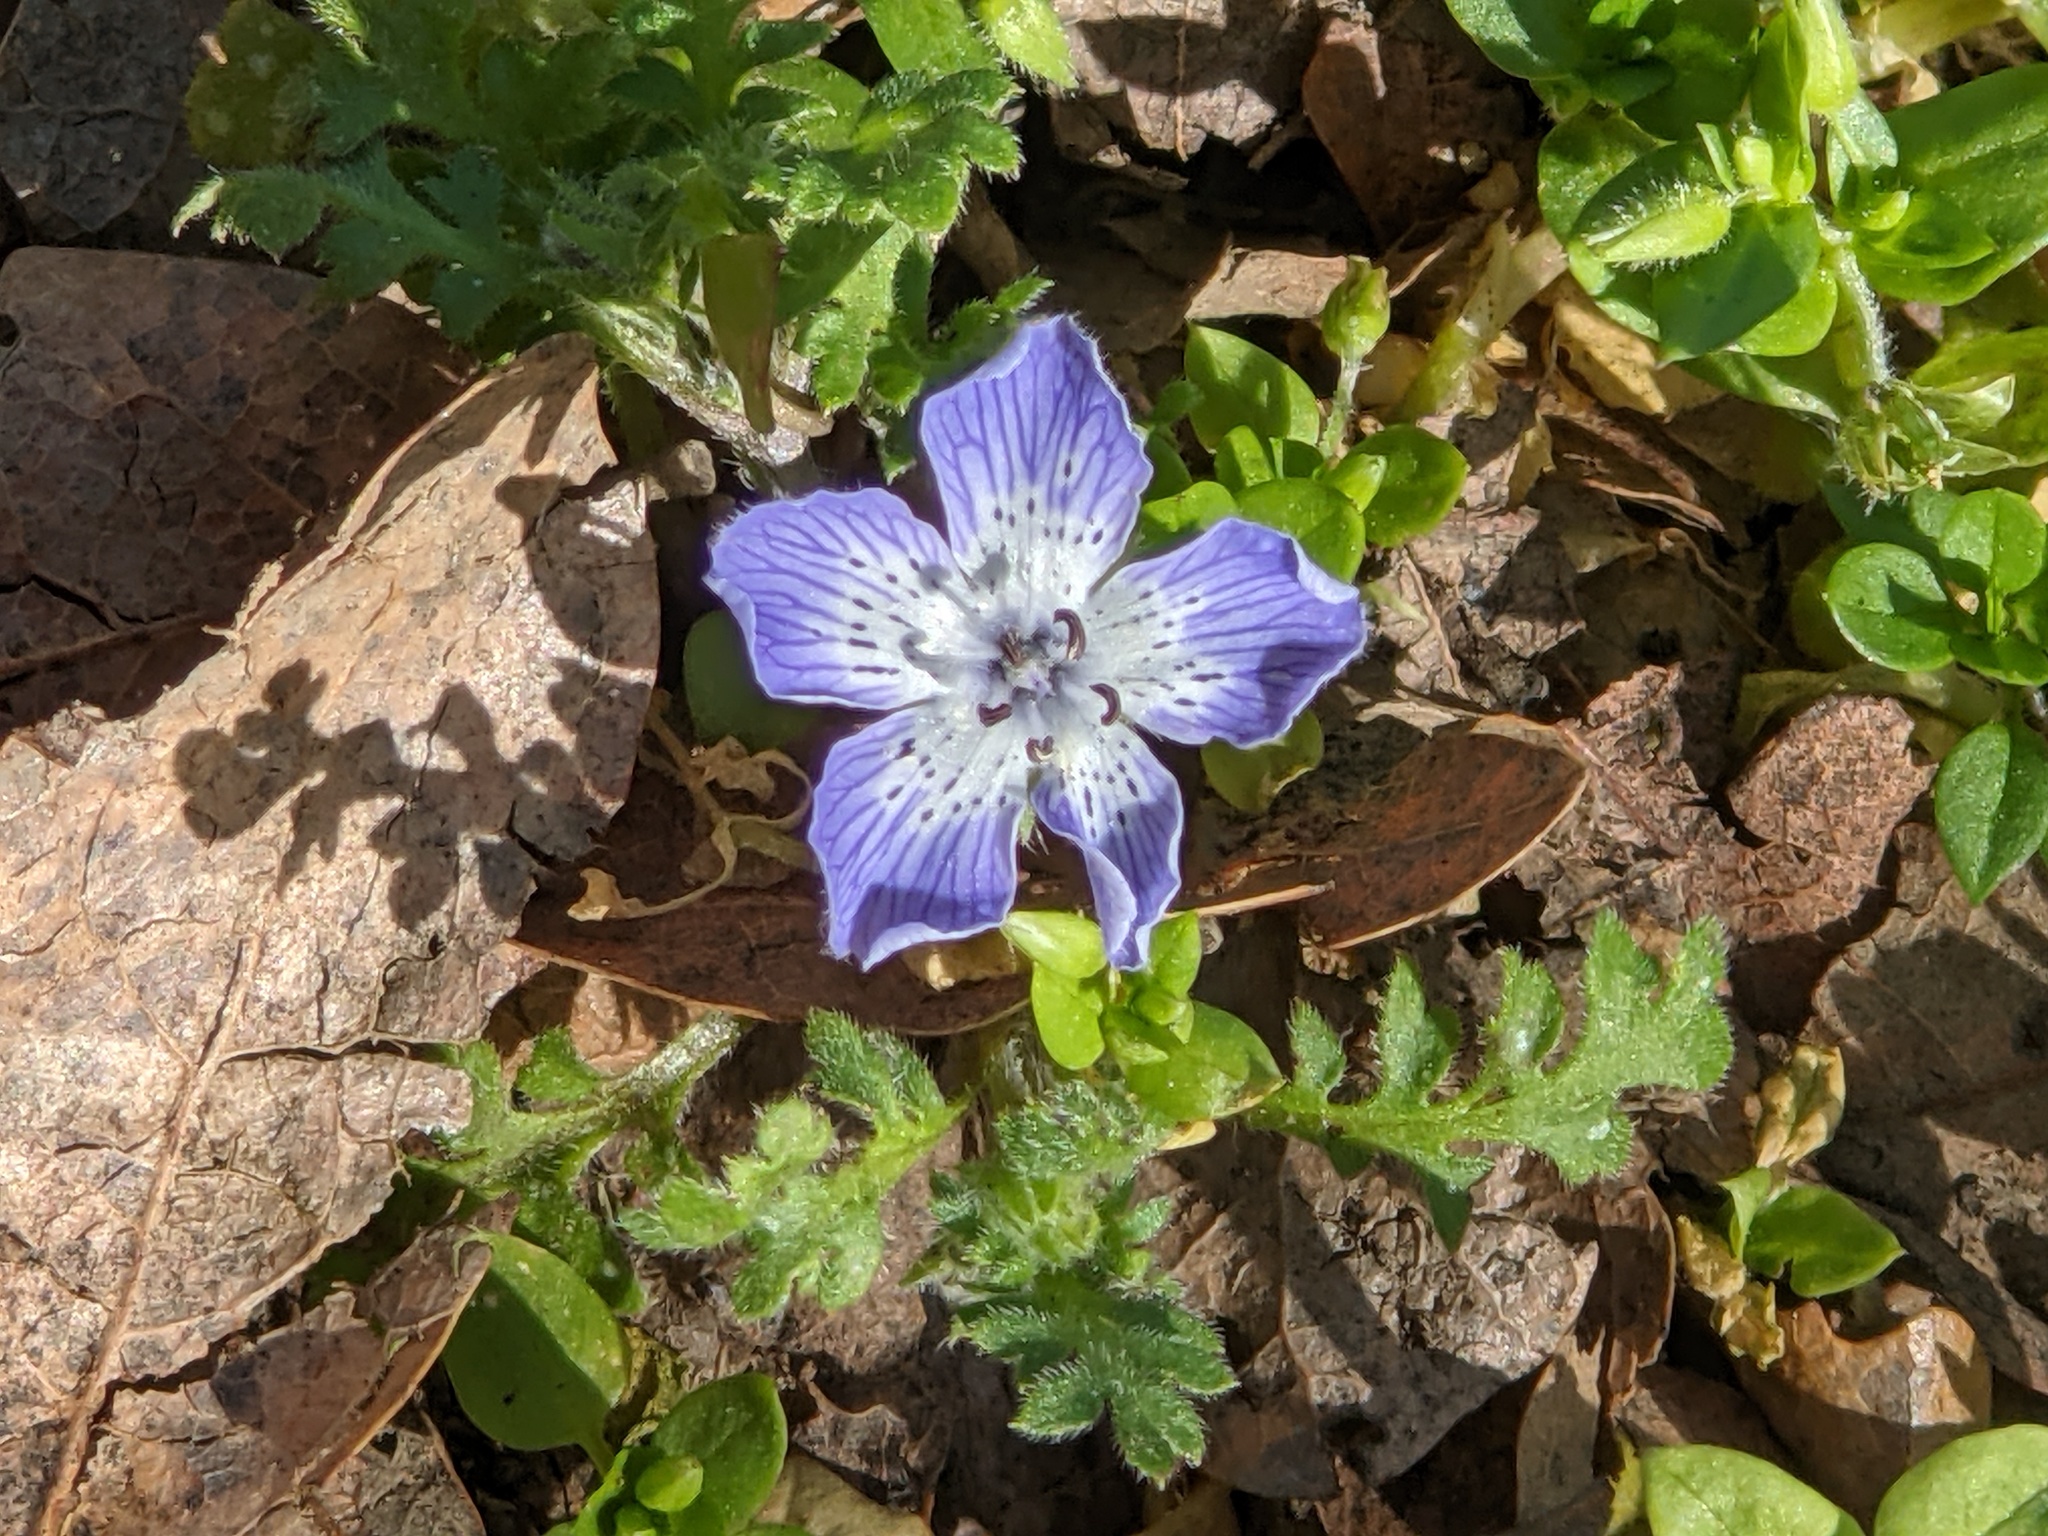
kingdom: Plantae
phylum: Tracheophyta
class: Magnoliopsida
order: Boraginales
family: Hydrophyllaceae
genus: Nemophila
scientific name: Nemophila menziesii
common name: Baby's-blue-eyes
